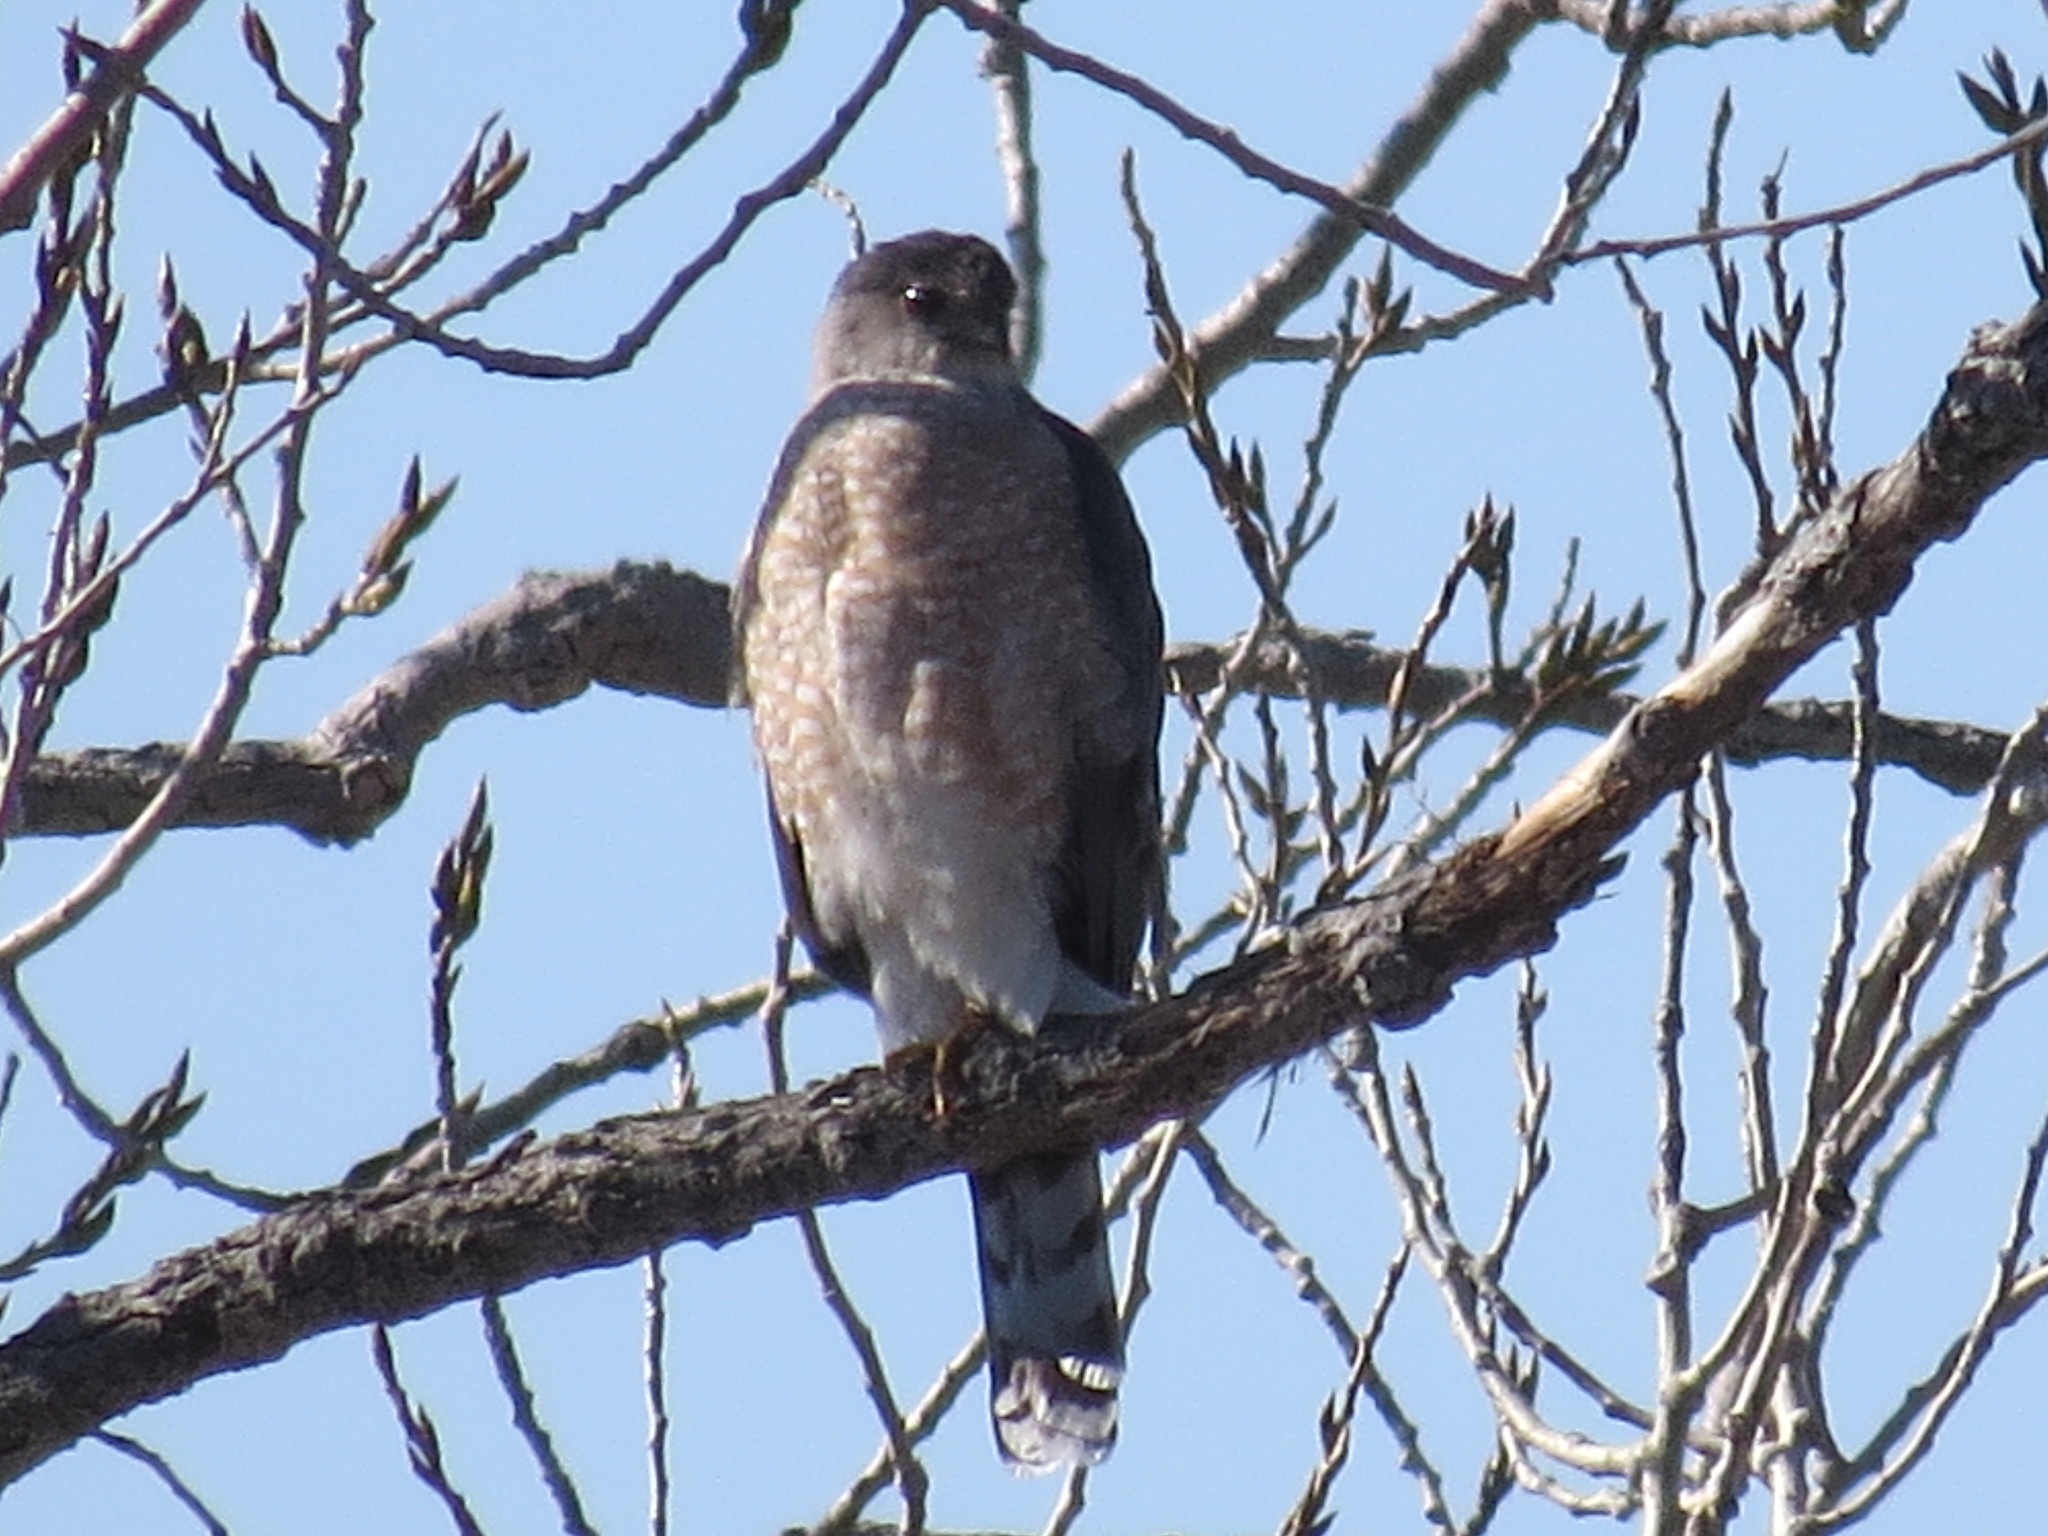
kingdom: Animalia
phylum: Chordata
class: Aves
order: Accipitriformes
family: Accipitridae
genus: Accipiter
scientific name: Accipiter cooperii
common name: Cooper's hawk
